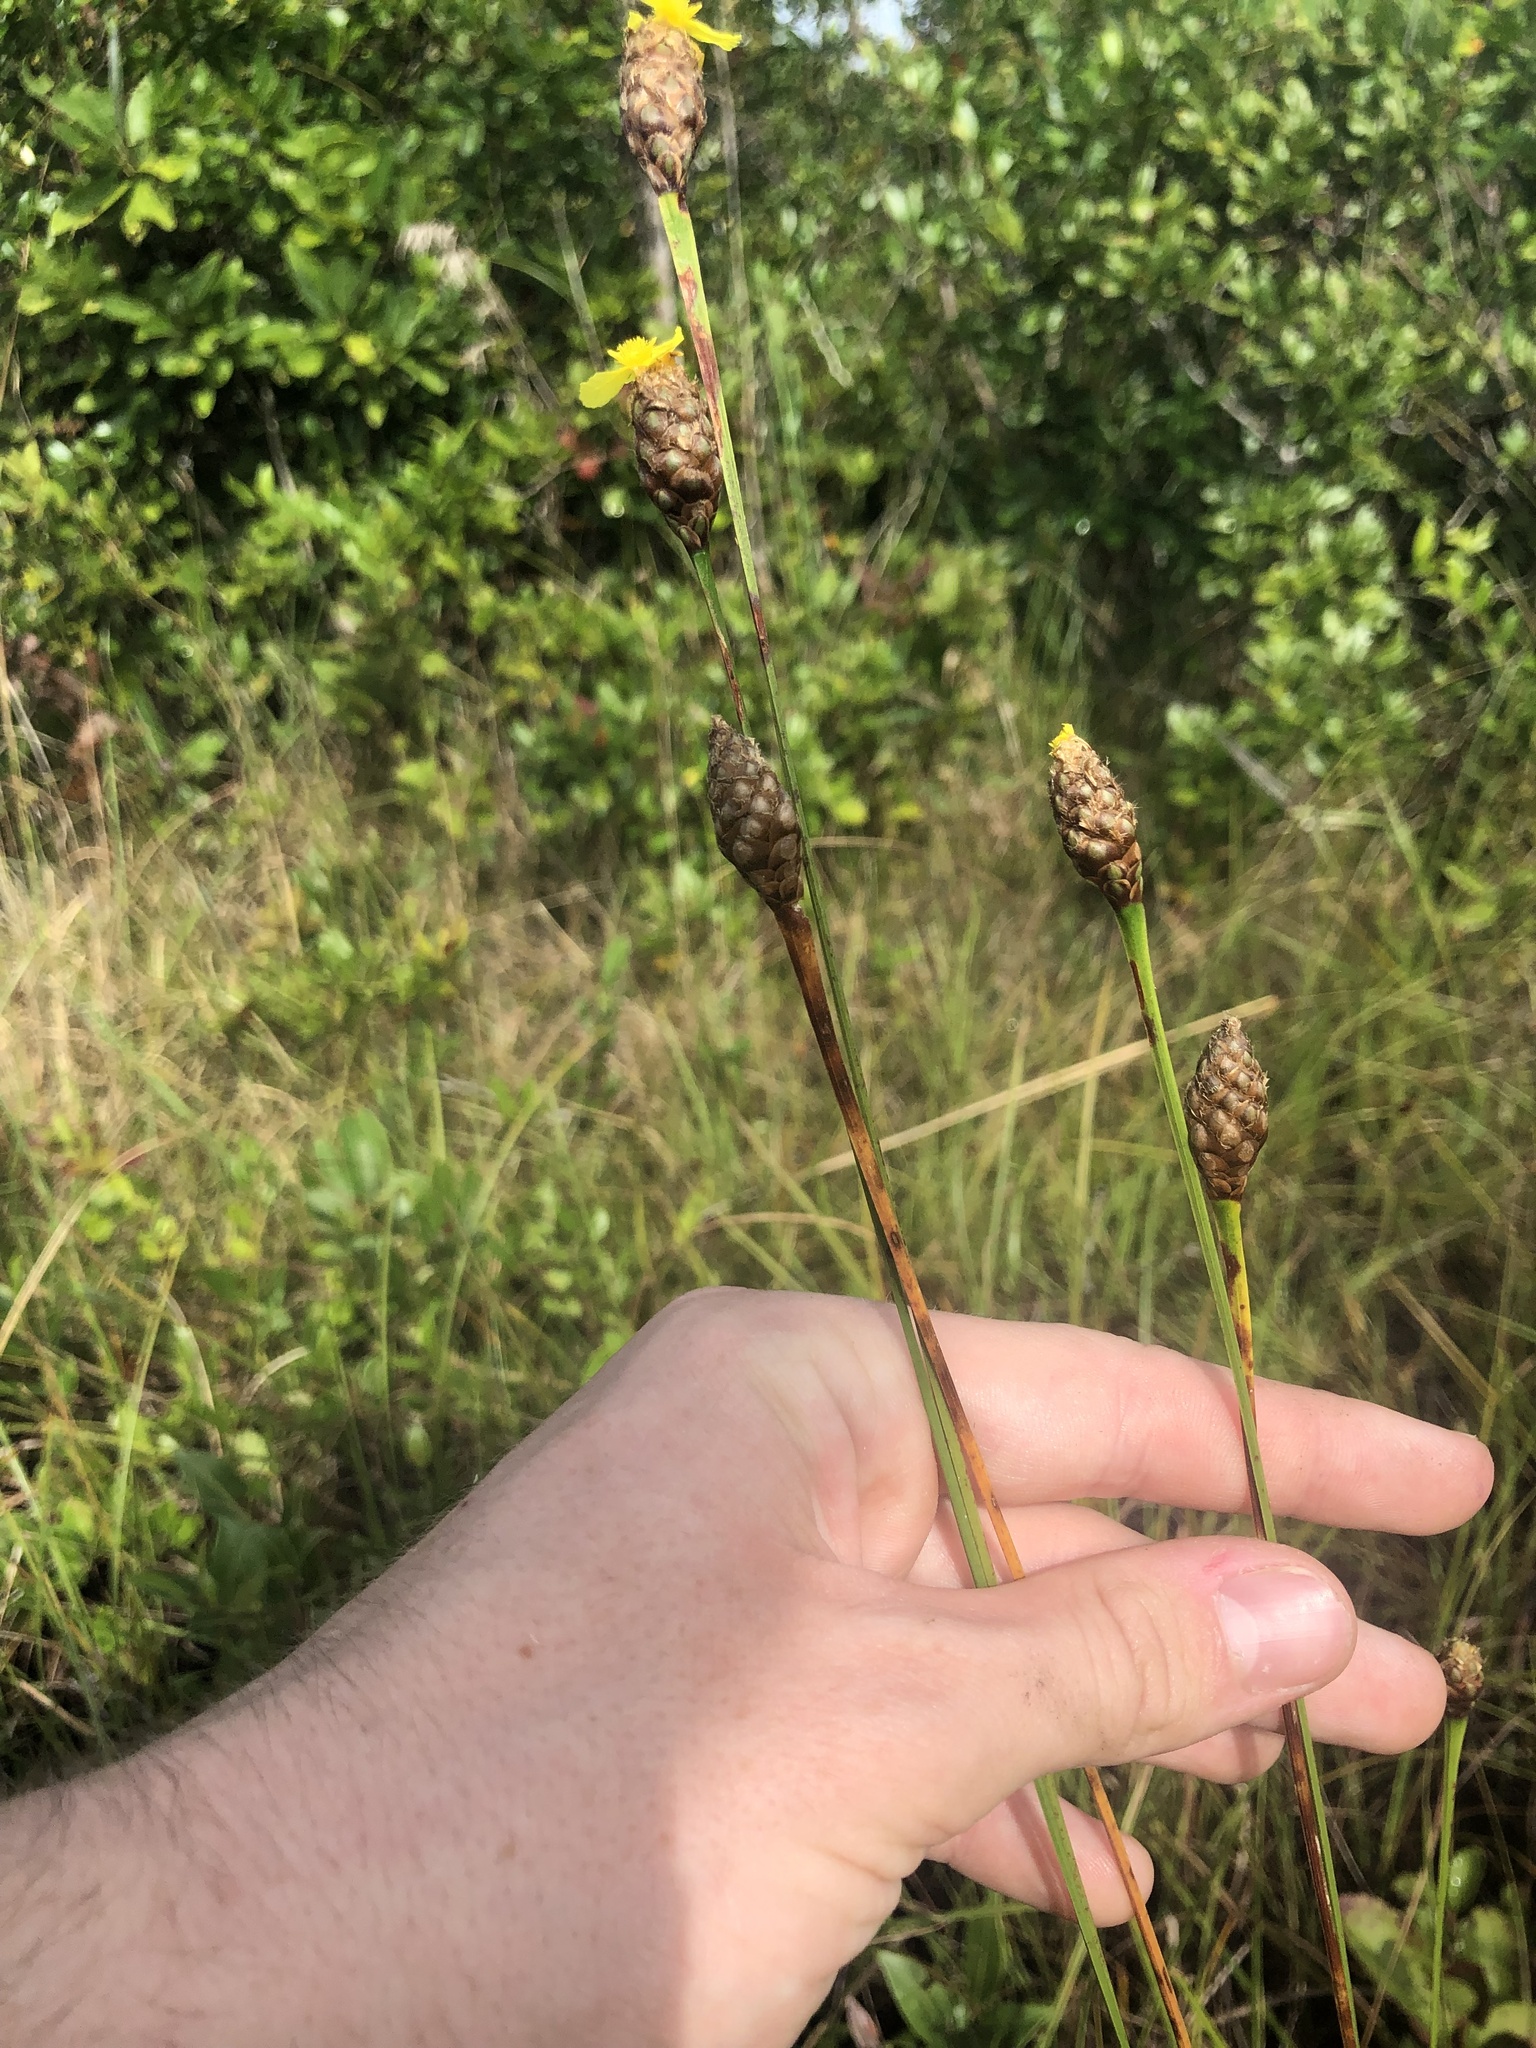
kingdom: Plantae
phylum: Tracheophyta
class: Liliopsida
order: Poales
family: Xyridaceae
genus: Xyris
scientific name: Xyris fimbriata
